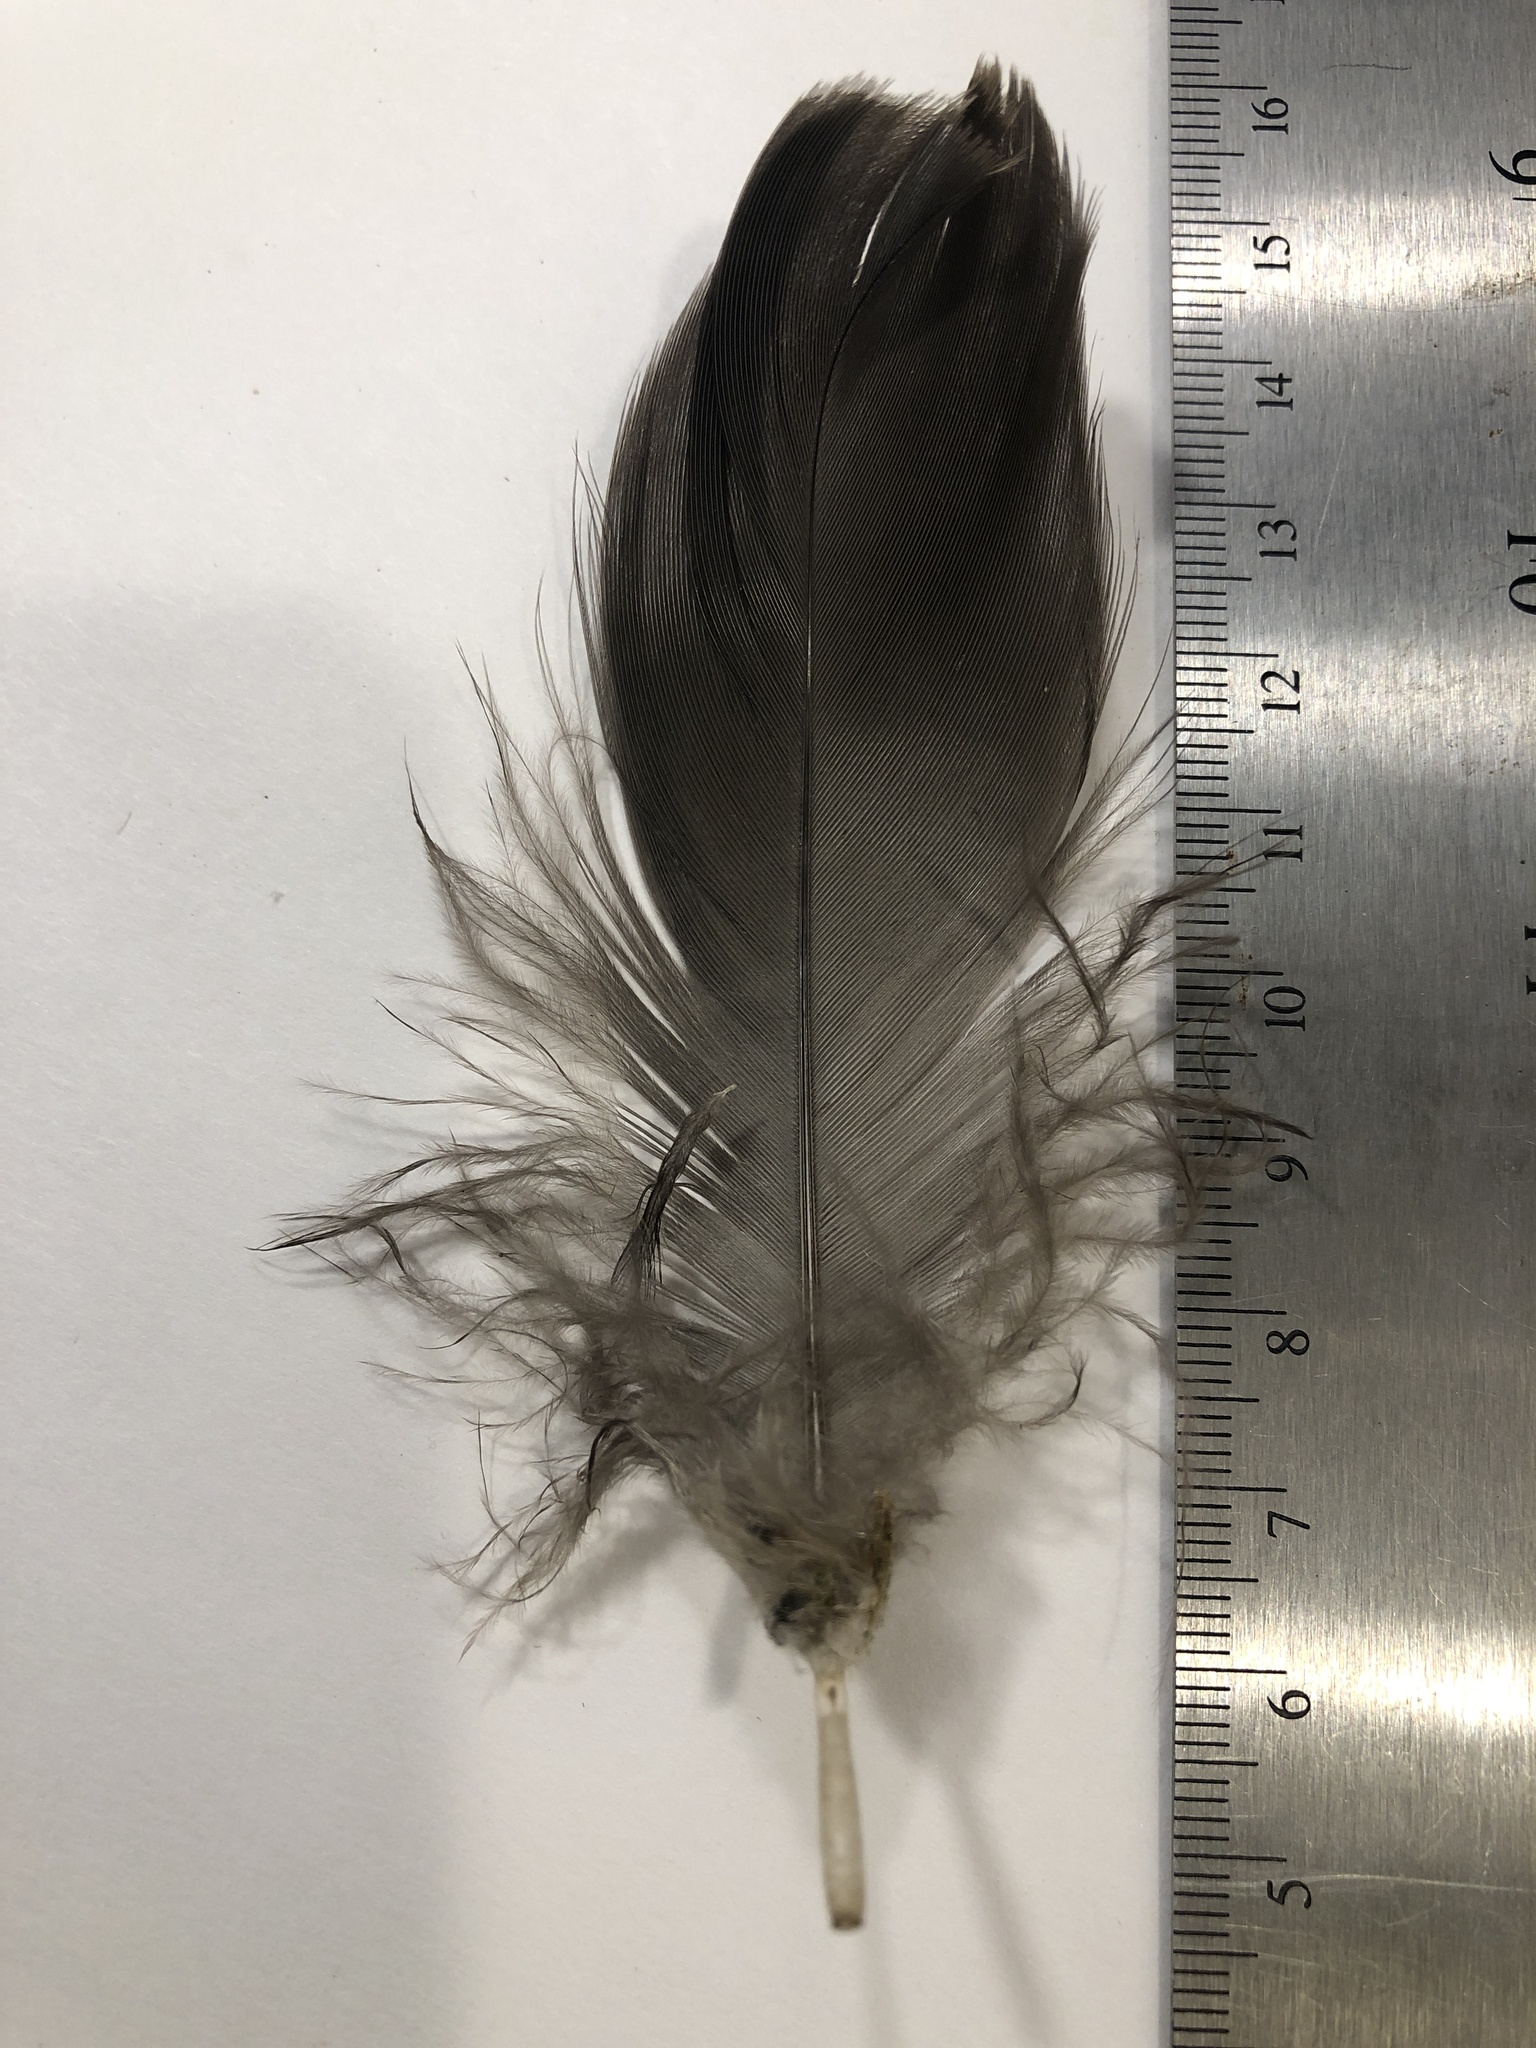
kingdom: Animalia
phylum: Chordata
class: Aves
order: Anseriformes
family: Anatidae
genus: Branta
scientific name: Branta canadensis
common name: Canada goose
